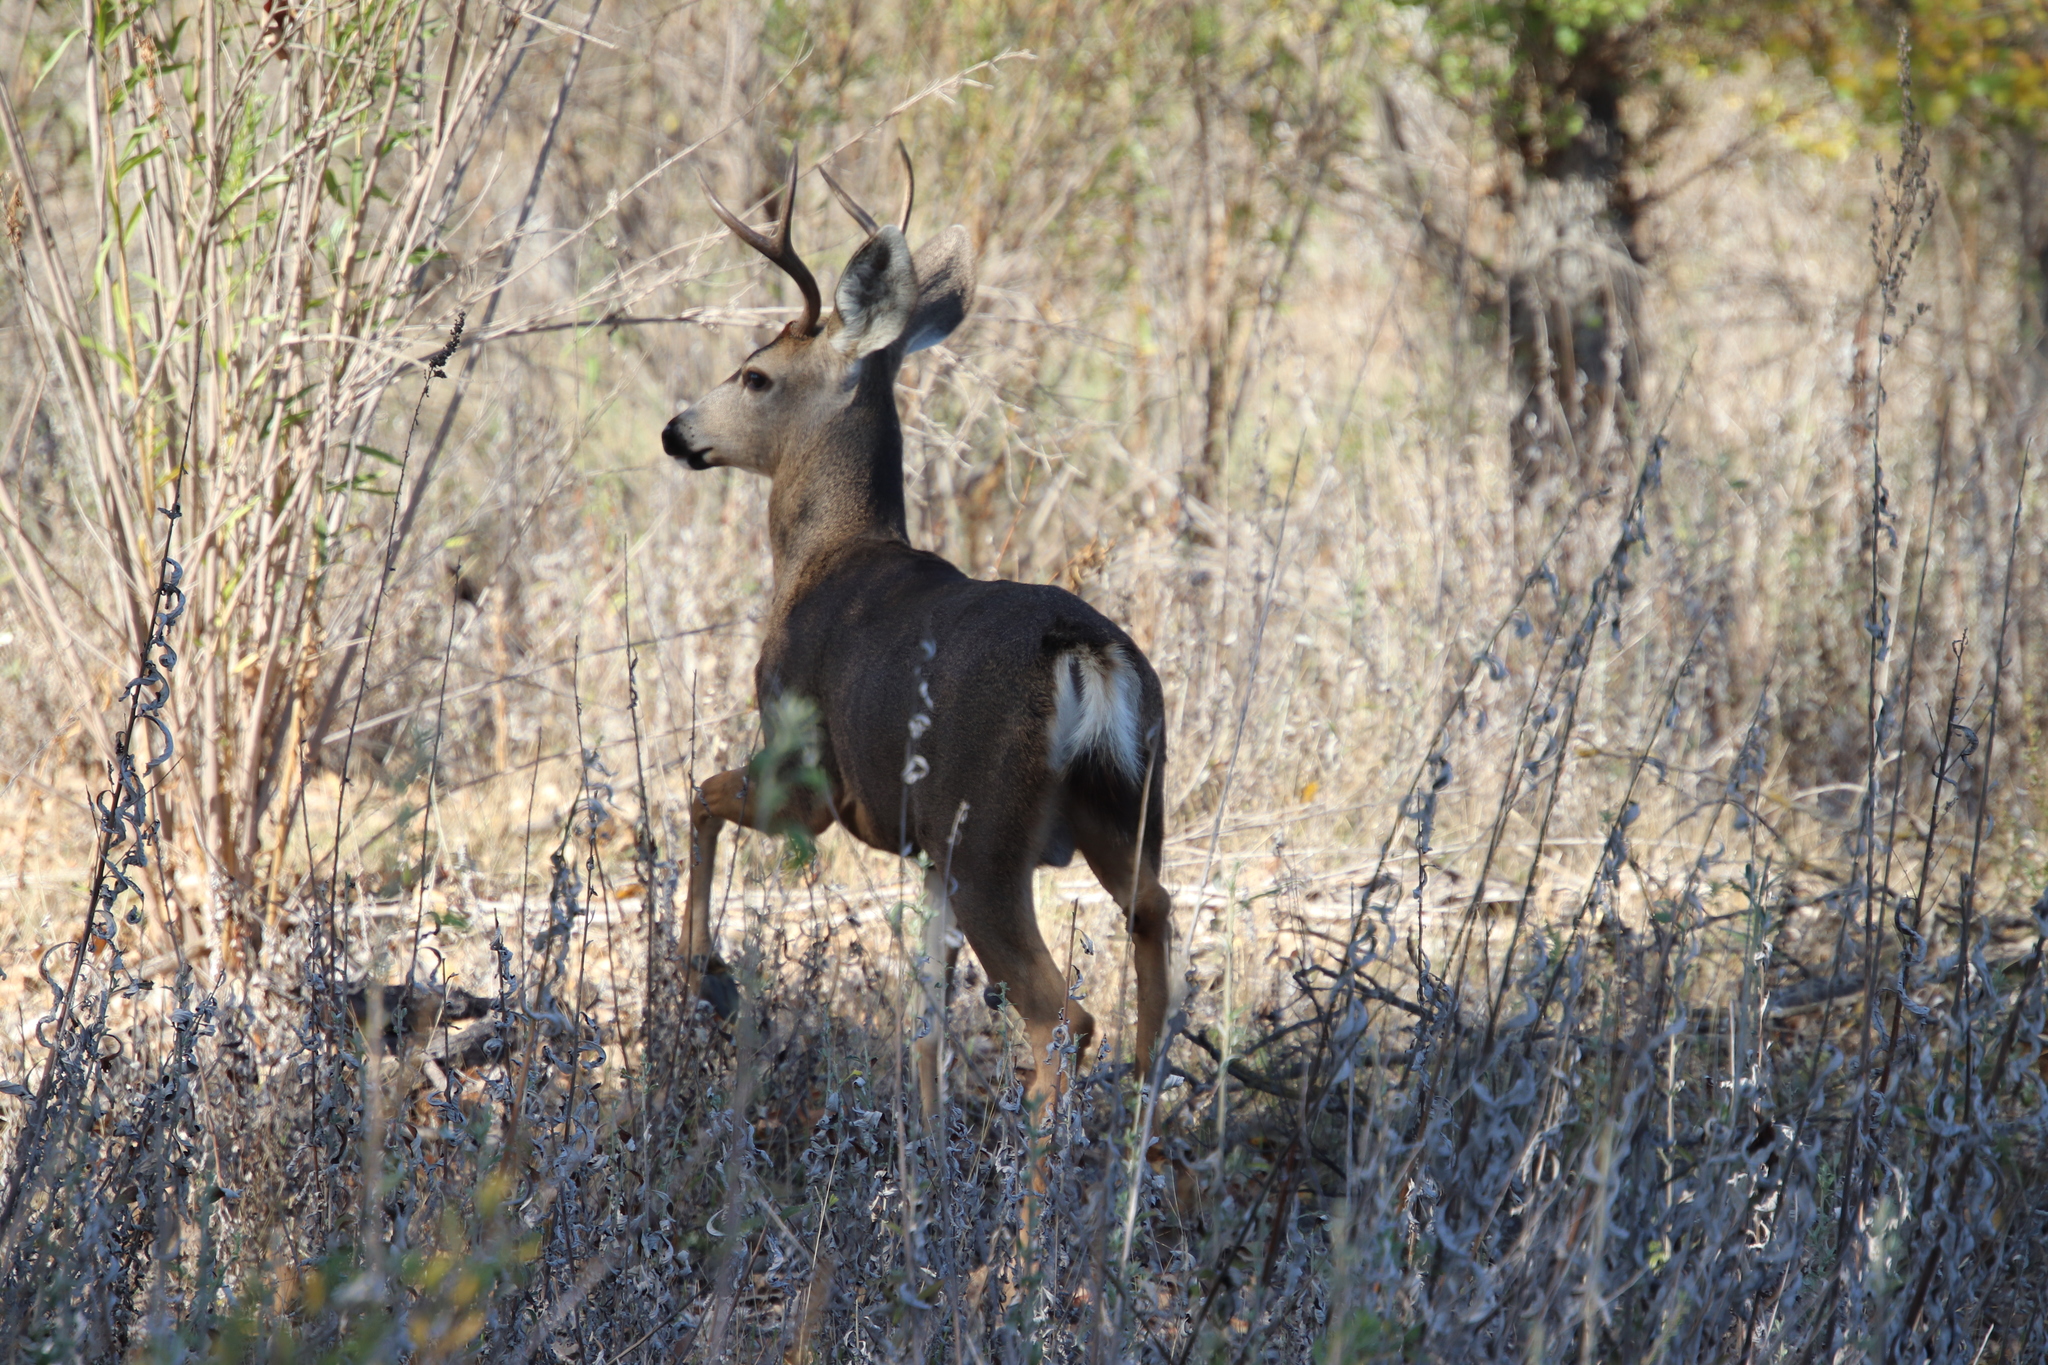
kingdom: Animalia
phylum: Chordata
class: Mammalia
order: Artiodactyla
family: Cervidae
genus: Odocoileus
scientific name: Odocoileus hemionus
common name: Mule deer
